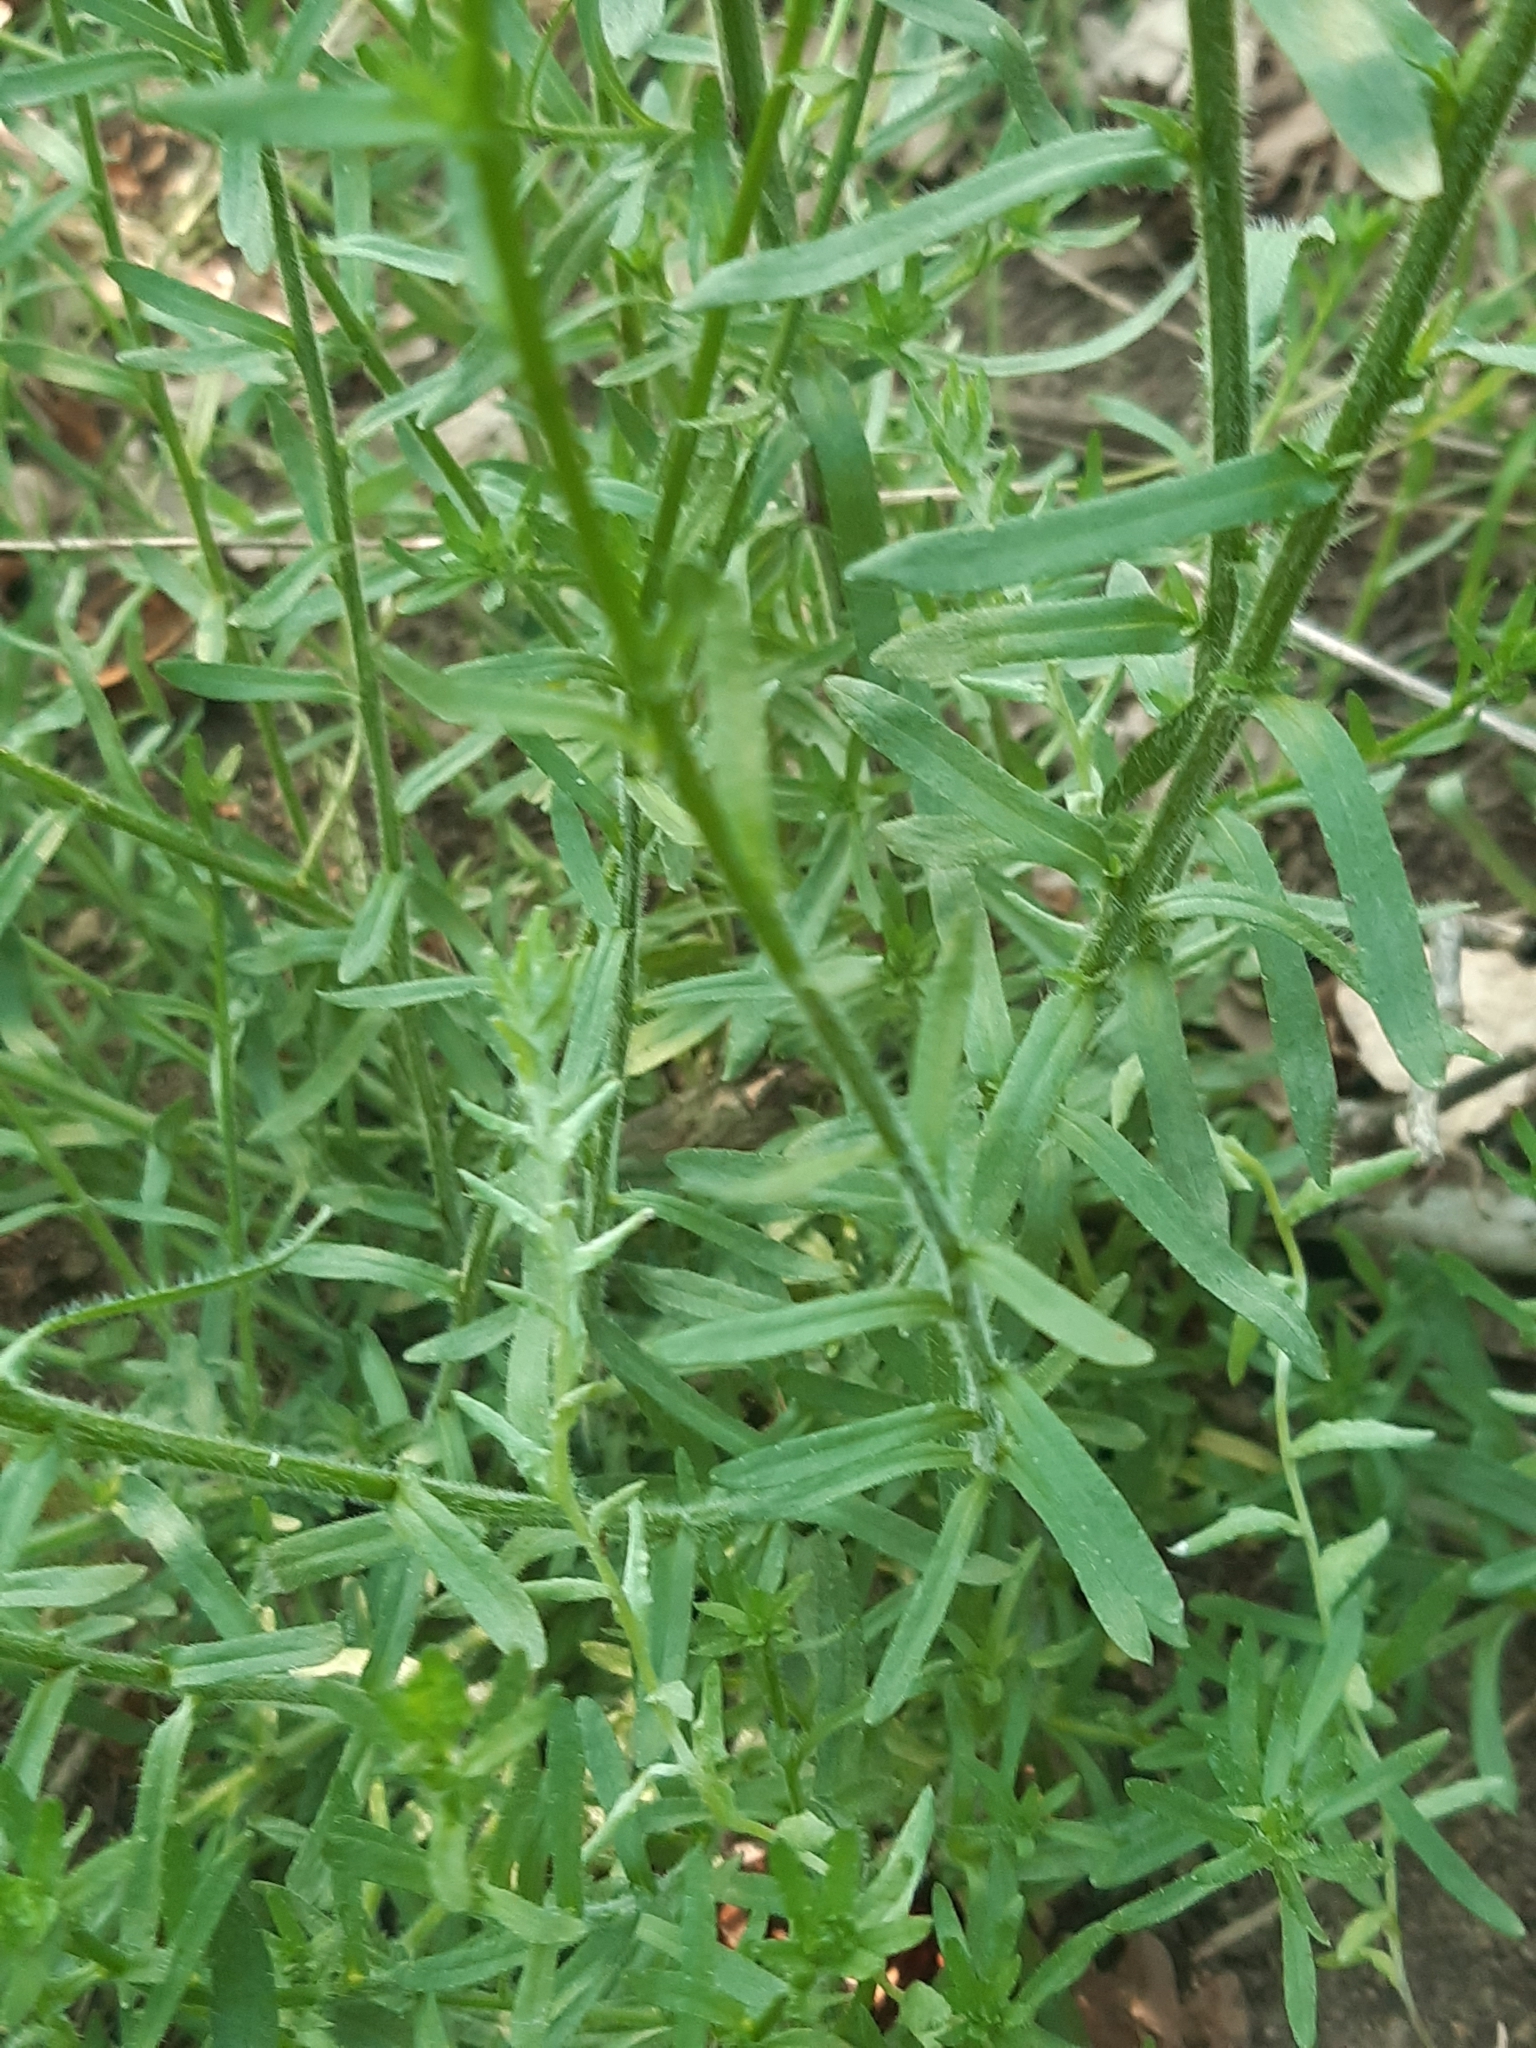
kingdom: Plantae
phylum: Tracheophyta
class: Magnoliopsida
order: Asterales
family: Campanulaceae
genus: Jasione
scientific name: Jasione montana
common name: Sheep's-bit
